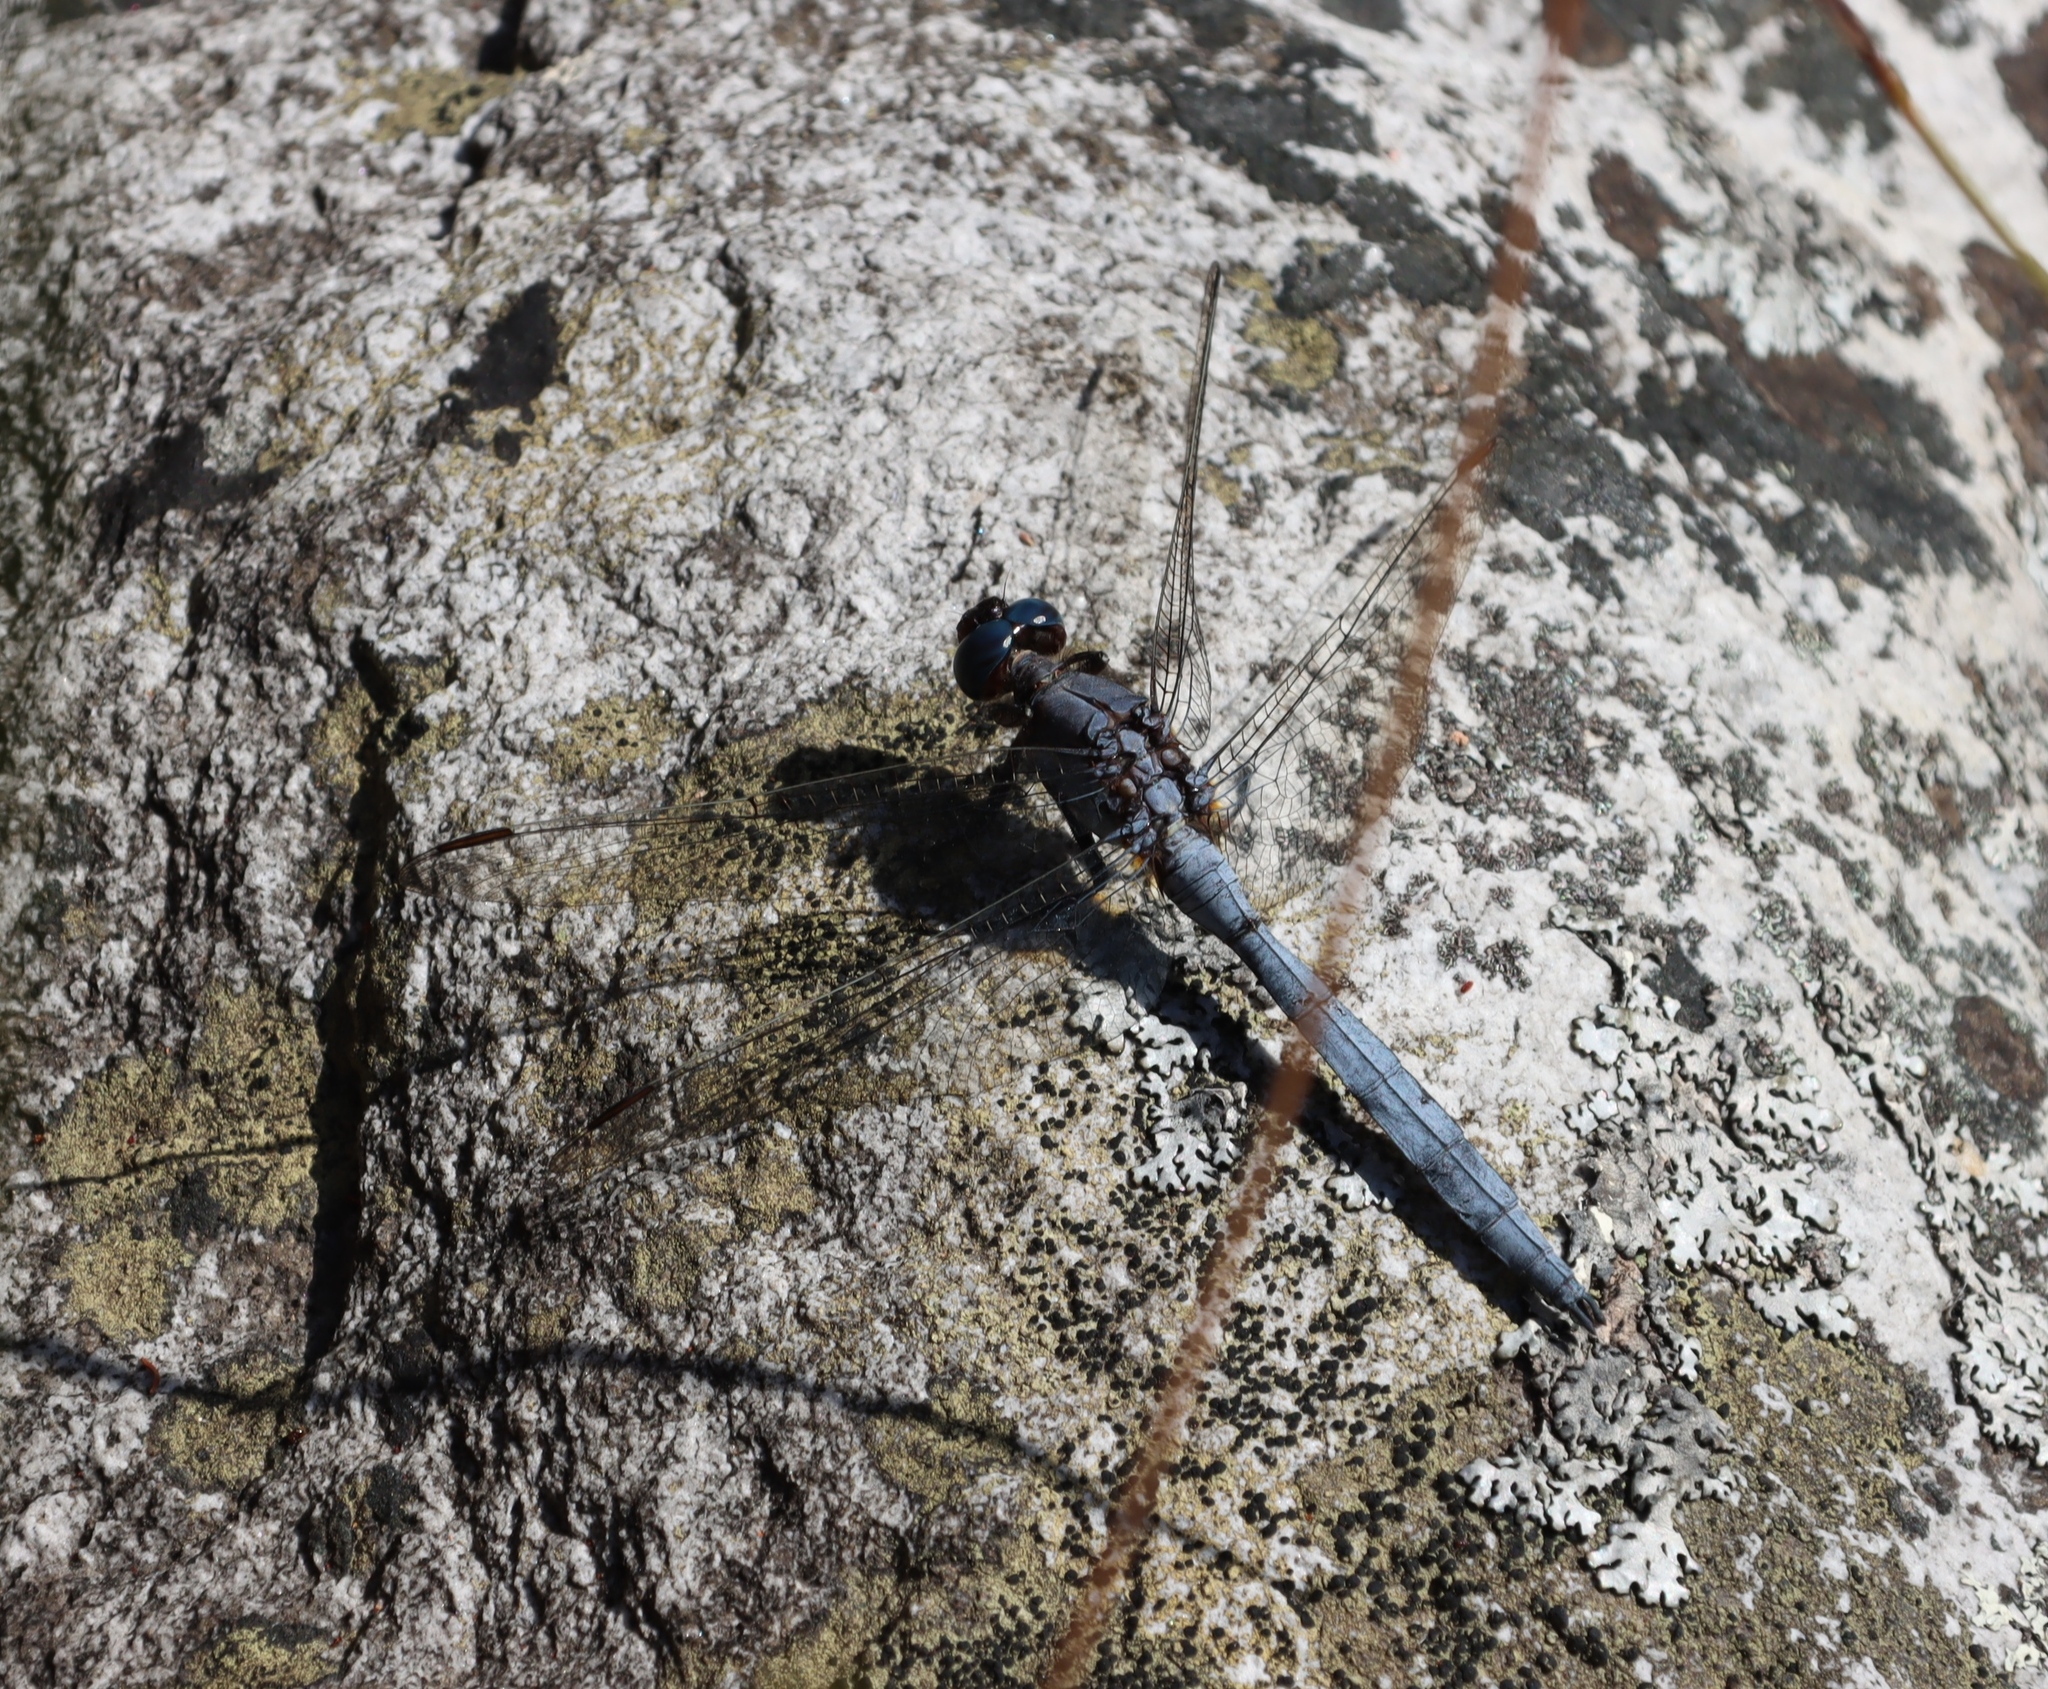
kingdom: Animalia
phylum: Arthropoda
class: Insecta
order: Odonata
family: Libellulidae
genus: Orthetrum
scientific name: Orthetrum julia
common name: Julia skimmer
